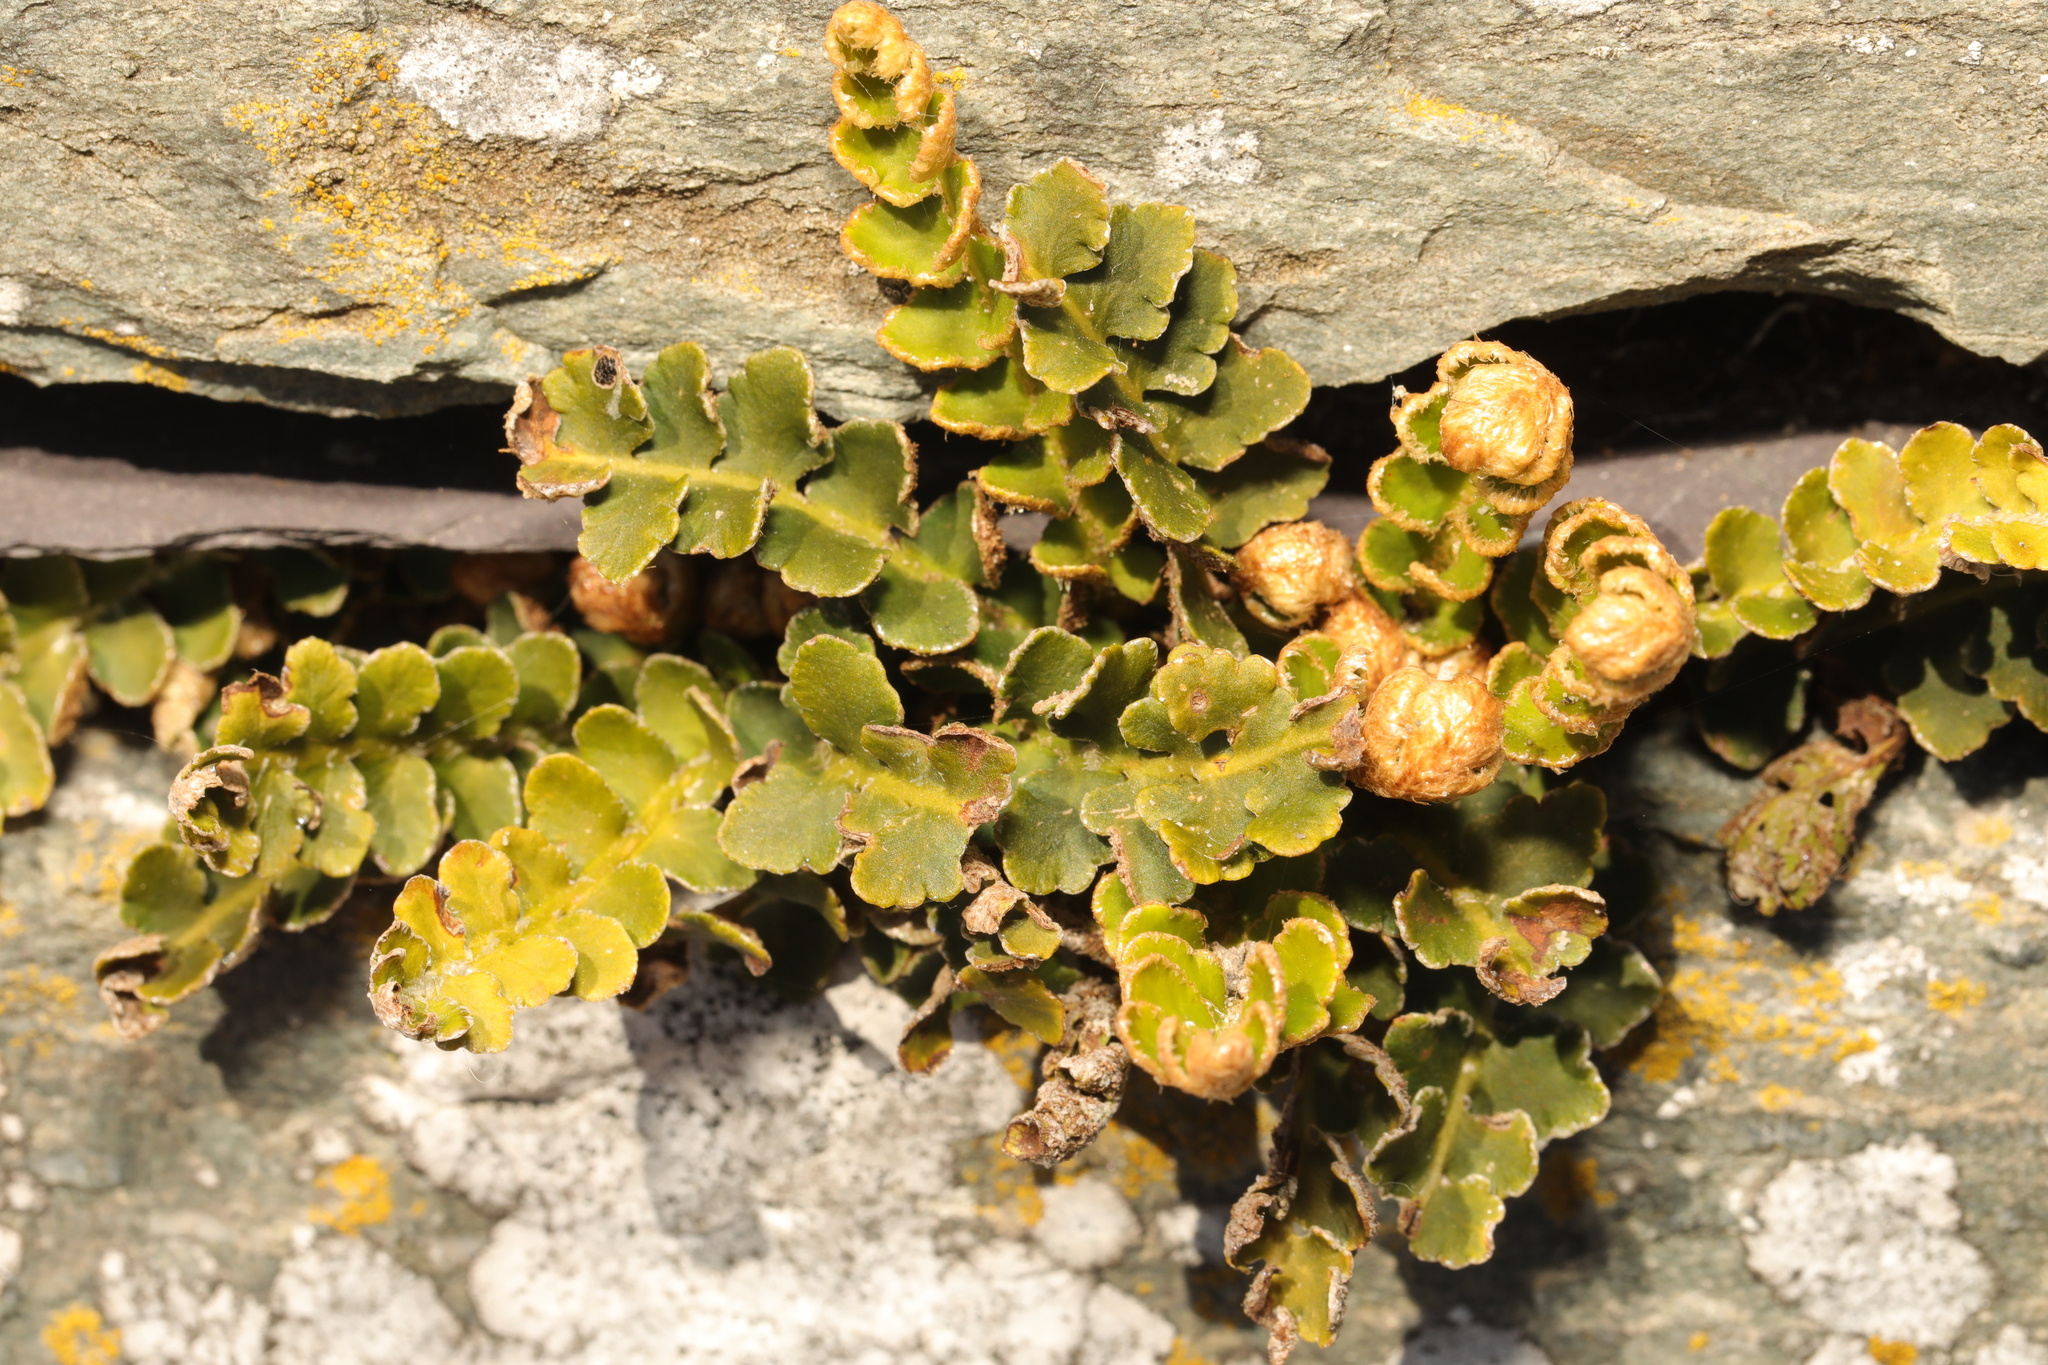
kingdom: Plantae
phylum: Tracheophyta
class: Polypodiopsida
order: Polypodiales
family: Aspleniaceae
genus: Asplenium
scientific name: Asplenium ceterach
